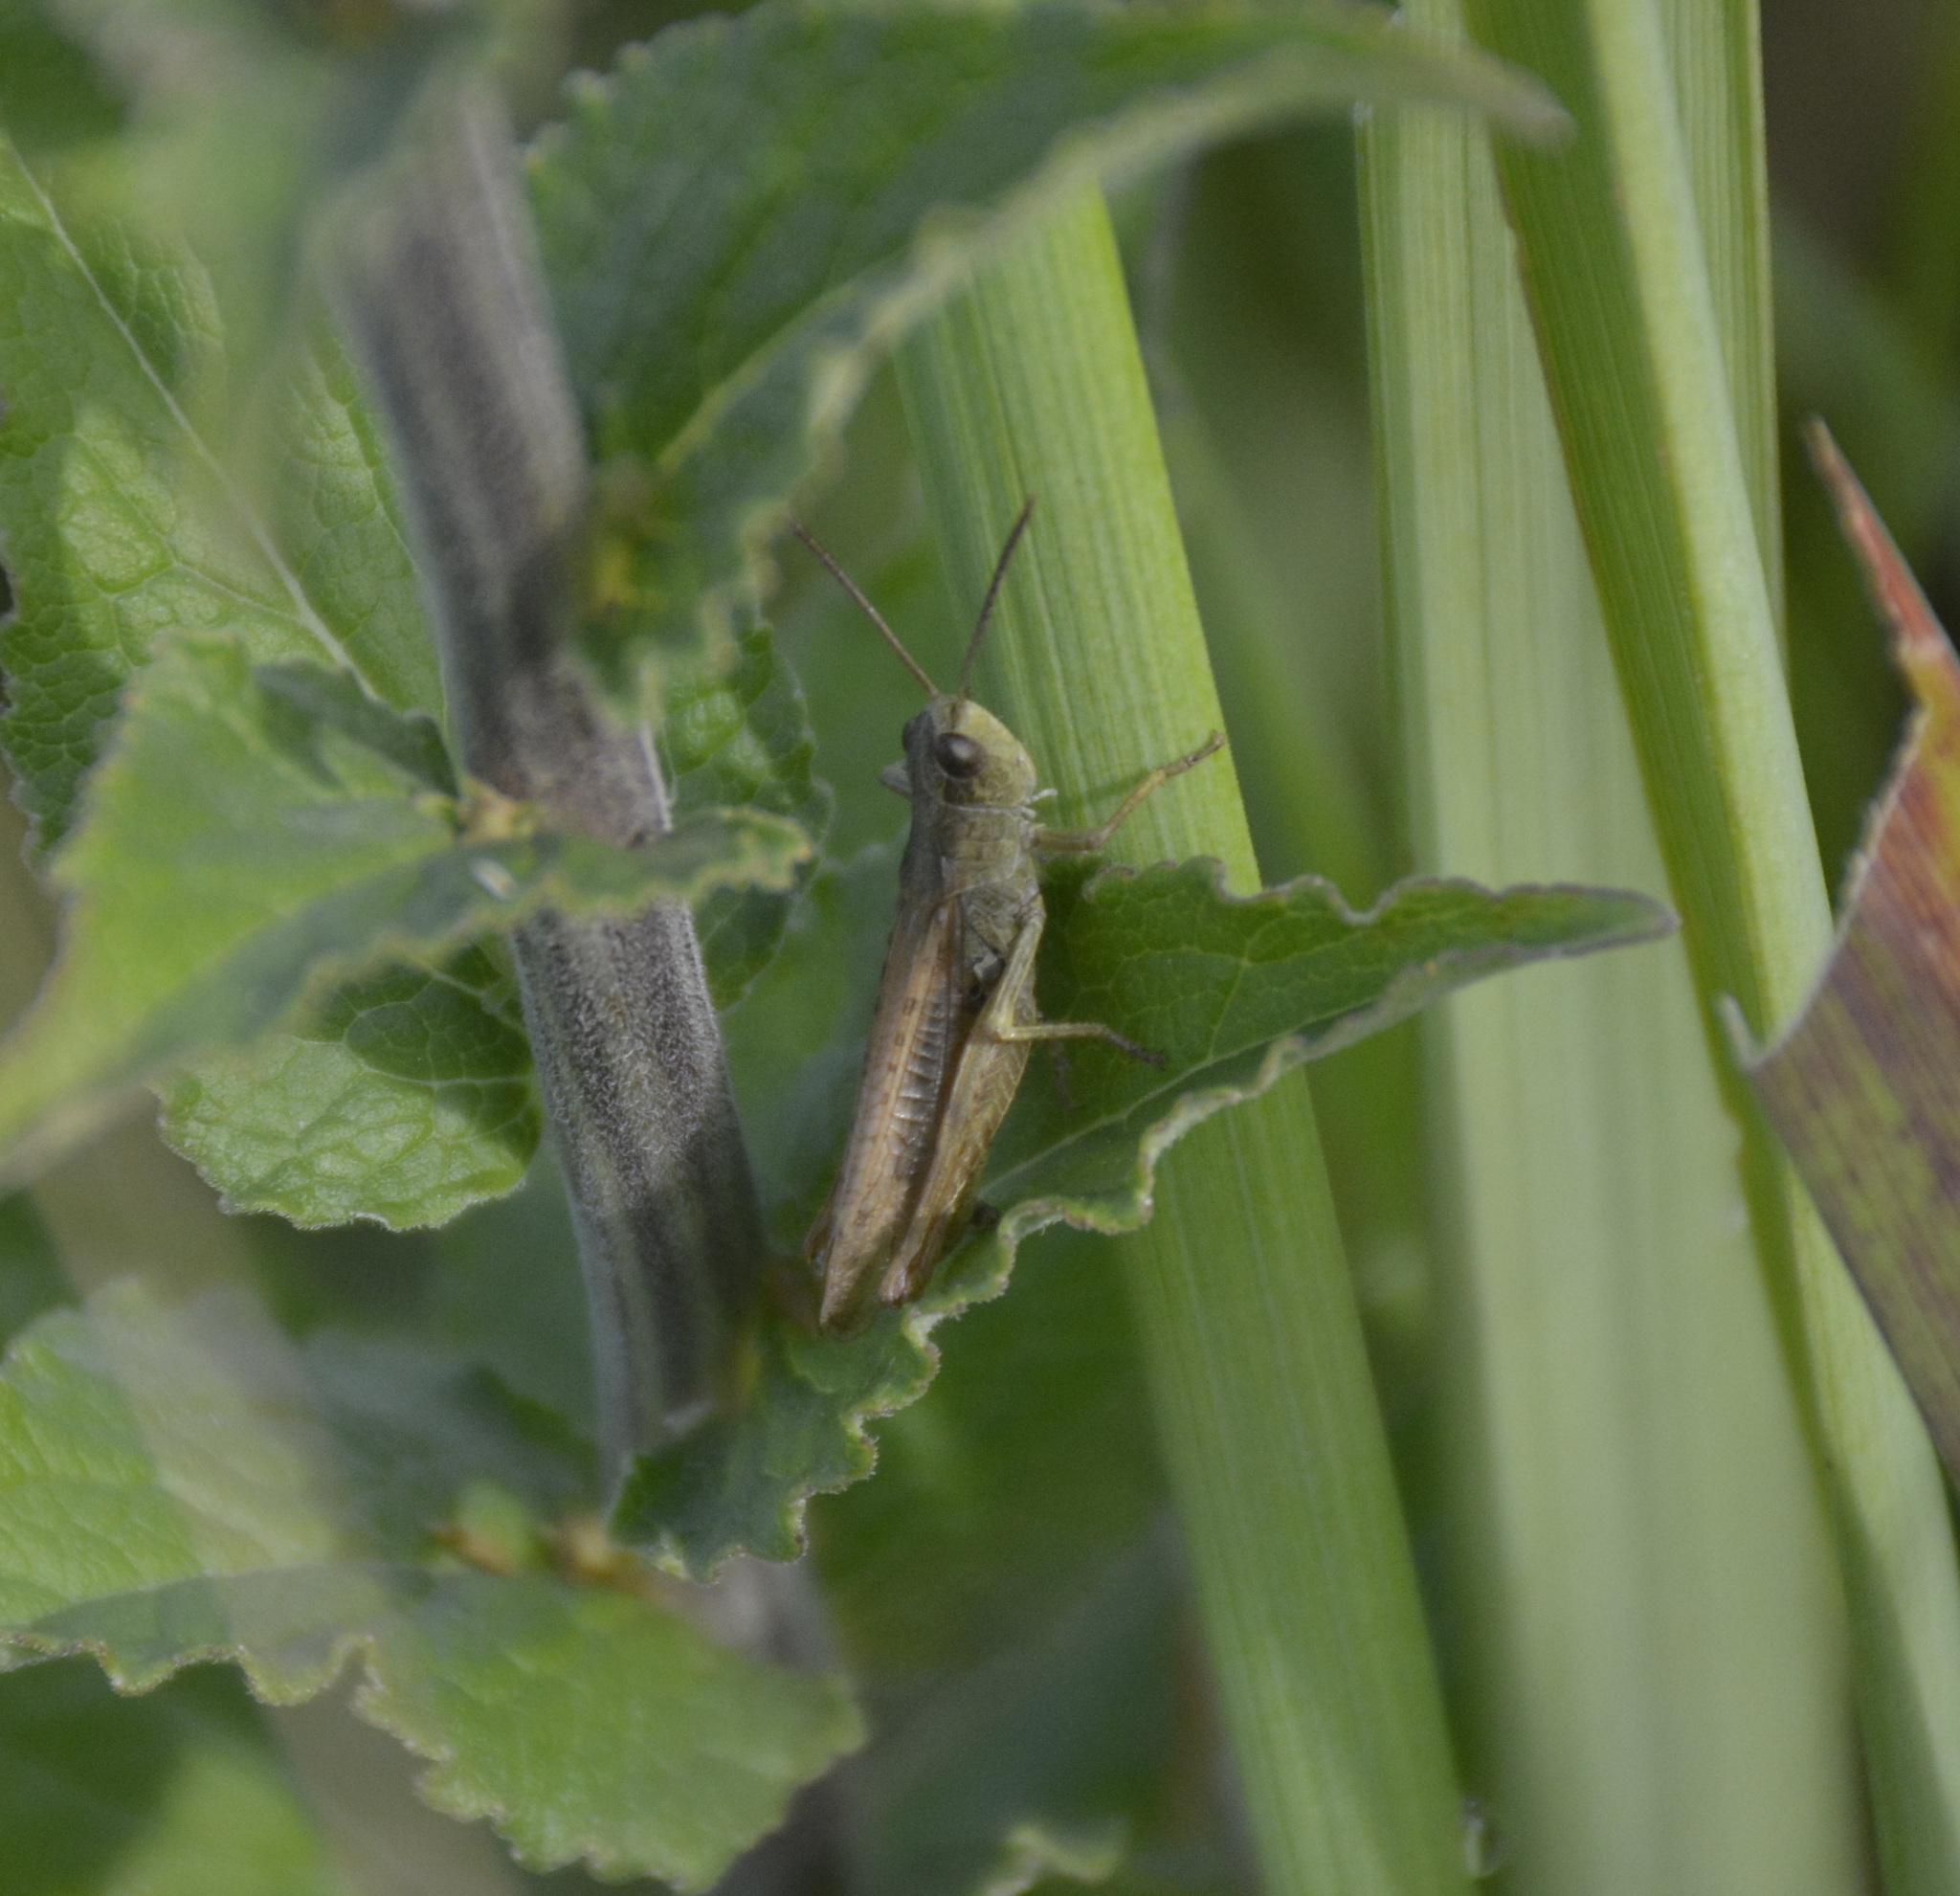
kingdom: Animalia
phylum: Arthropoda
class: Insecta
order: Orthoptera
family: Acrididae
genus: Chorthippus
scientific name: Chorthippus apricarius
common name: Upland field grasshopper
